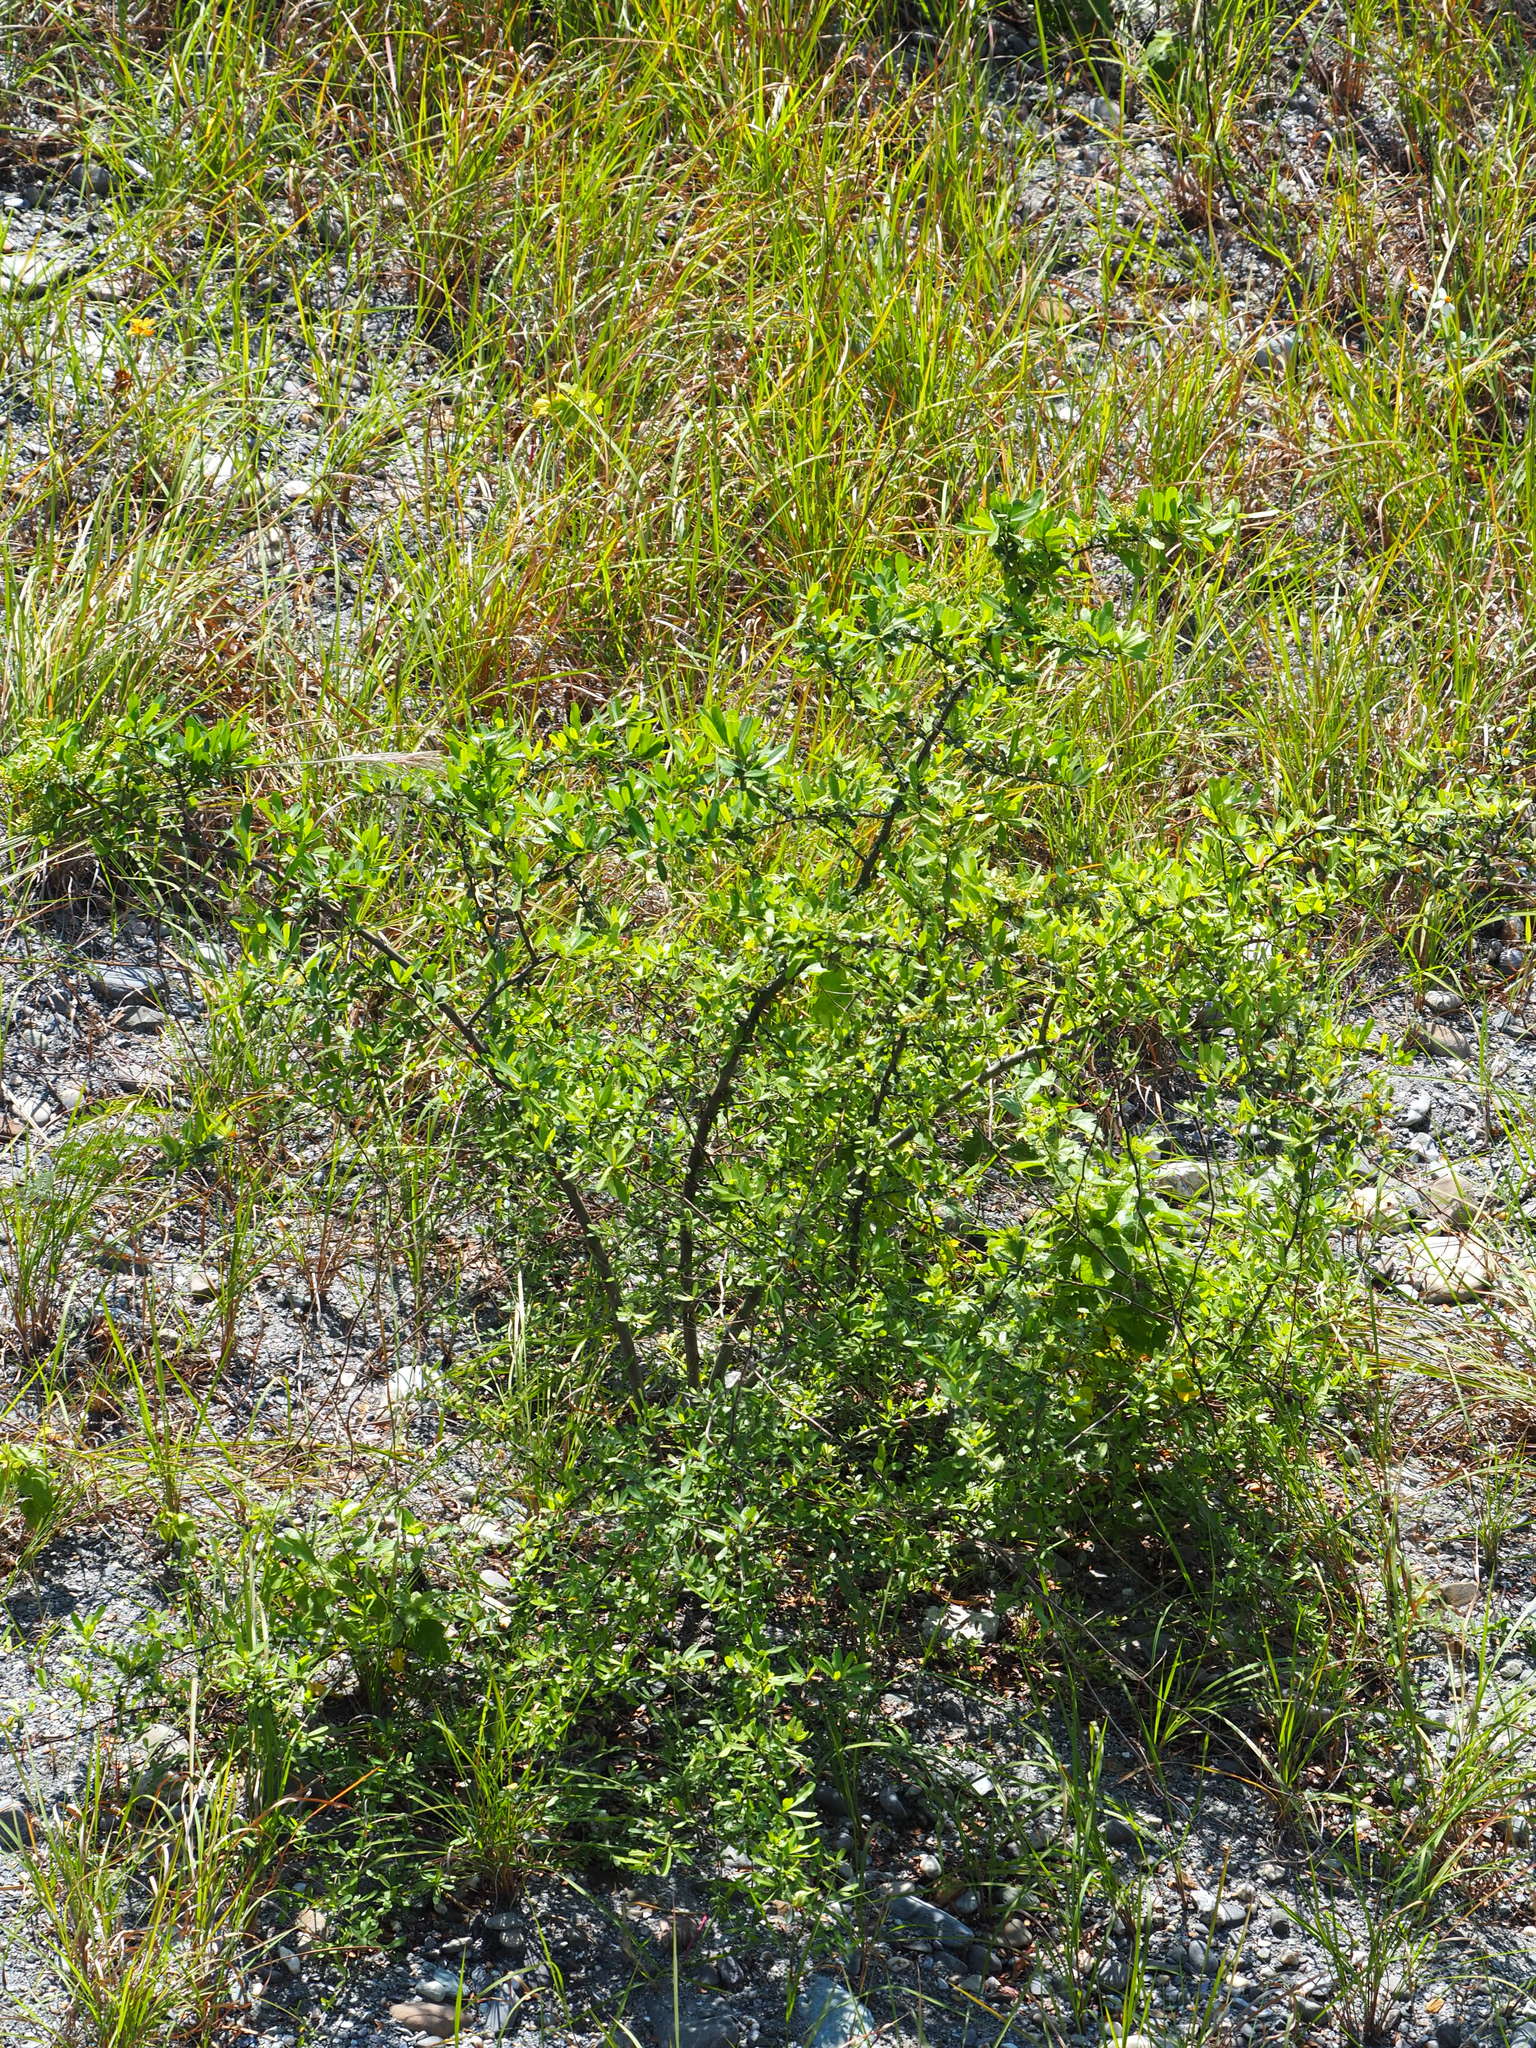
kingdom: Plantae
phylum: Tracheophyta
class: Magnoliopsida
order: Rosales
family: Rosaceae
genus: Pyracantha
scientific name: Pyracantha koidzumii
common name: Formosa firethorn
